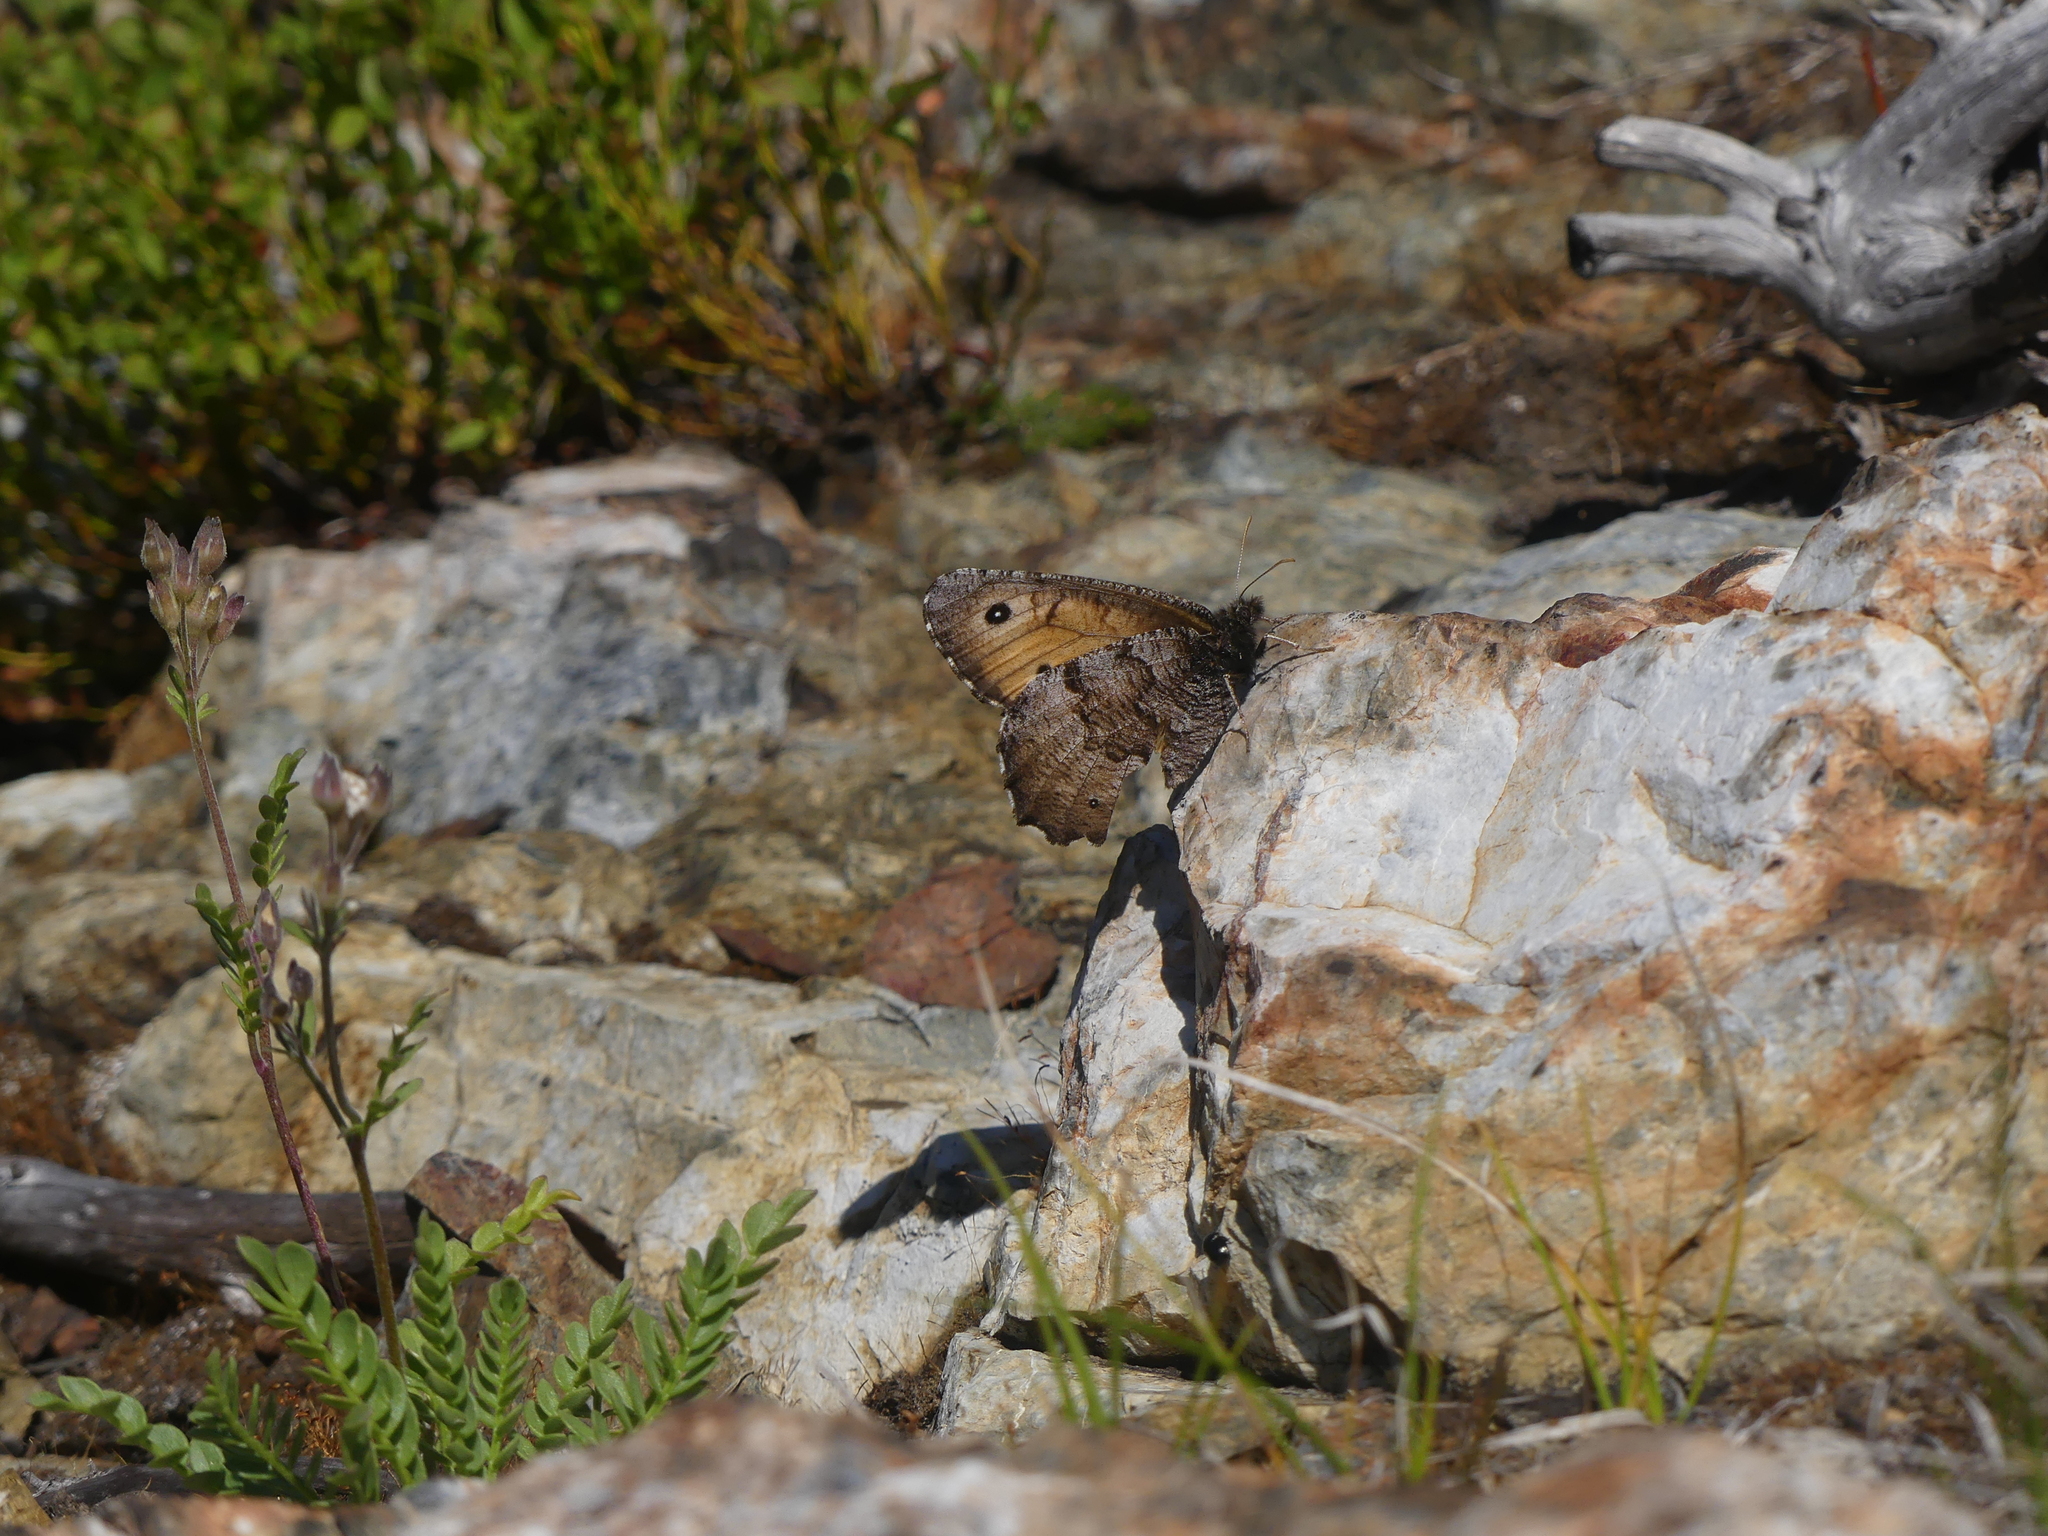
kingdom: Animalia
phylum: Arthropoda
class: Insecta
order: Lepidoptera
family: Nymphalidae
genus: Oeneis
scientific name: Oeneis macounii
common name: Macoun's arctic
